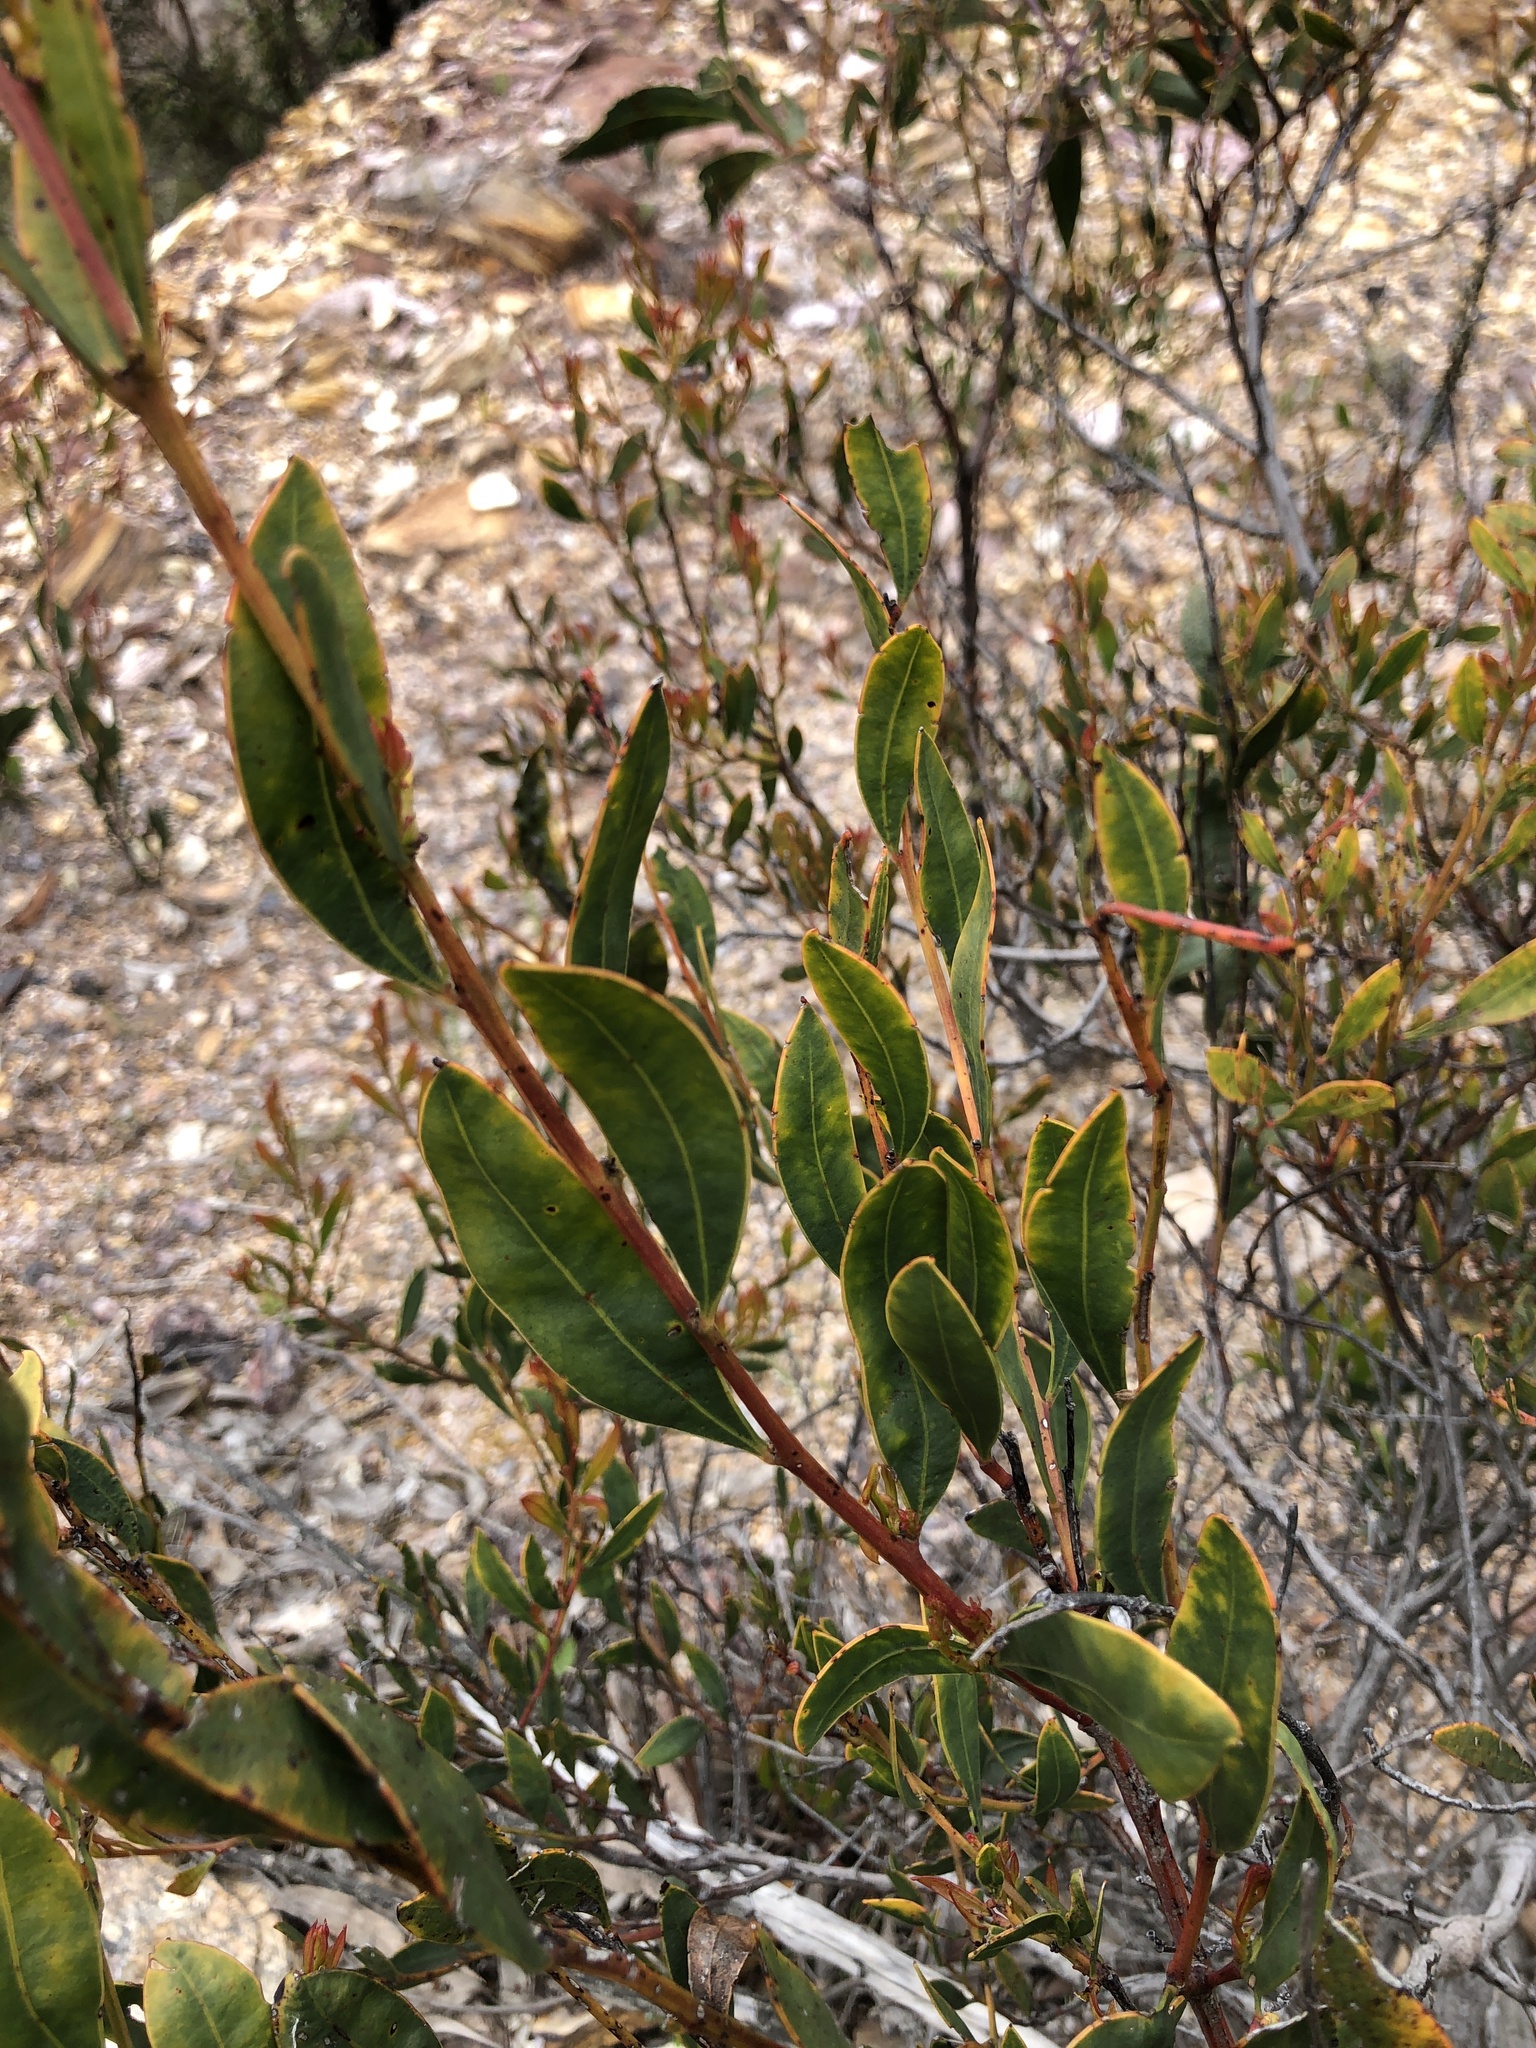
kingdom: Plantae
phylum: Tracheophyta
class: Magnoliopsida
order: Fabales
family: Fabaceae
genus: Acacia
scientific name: Acacia myrtifolia
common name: Myrtle wattle
